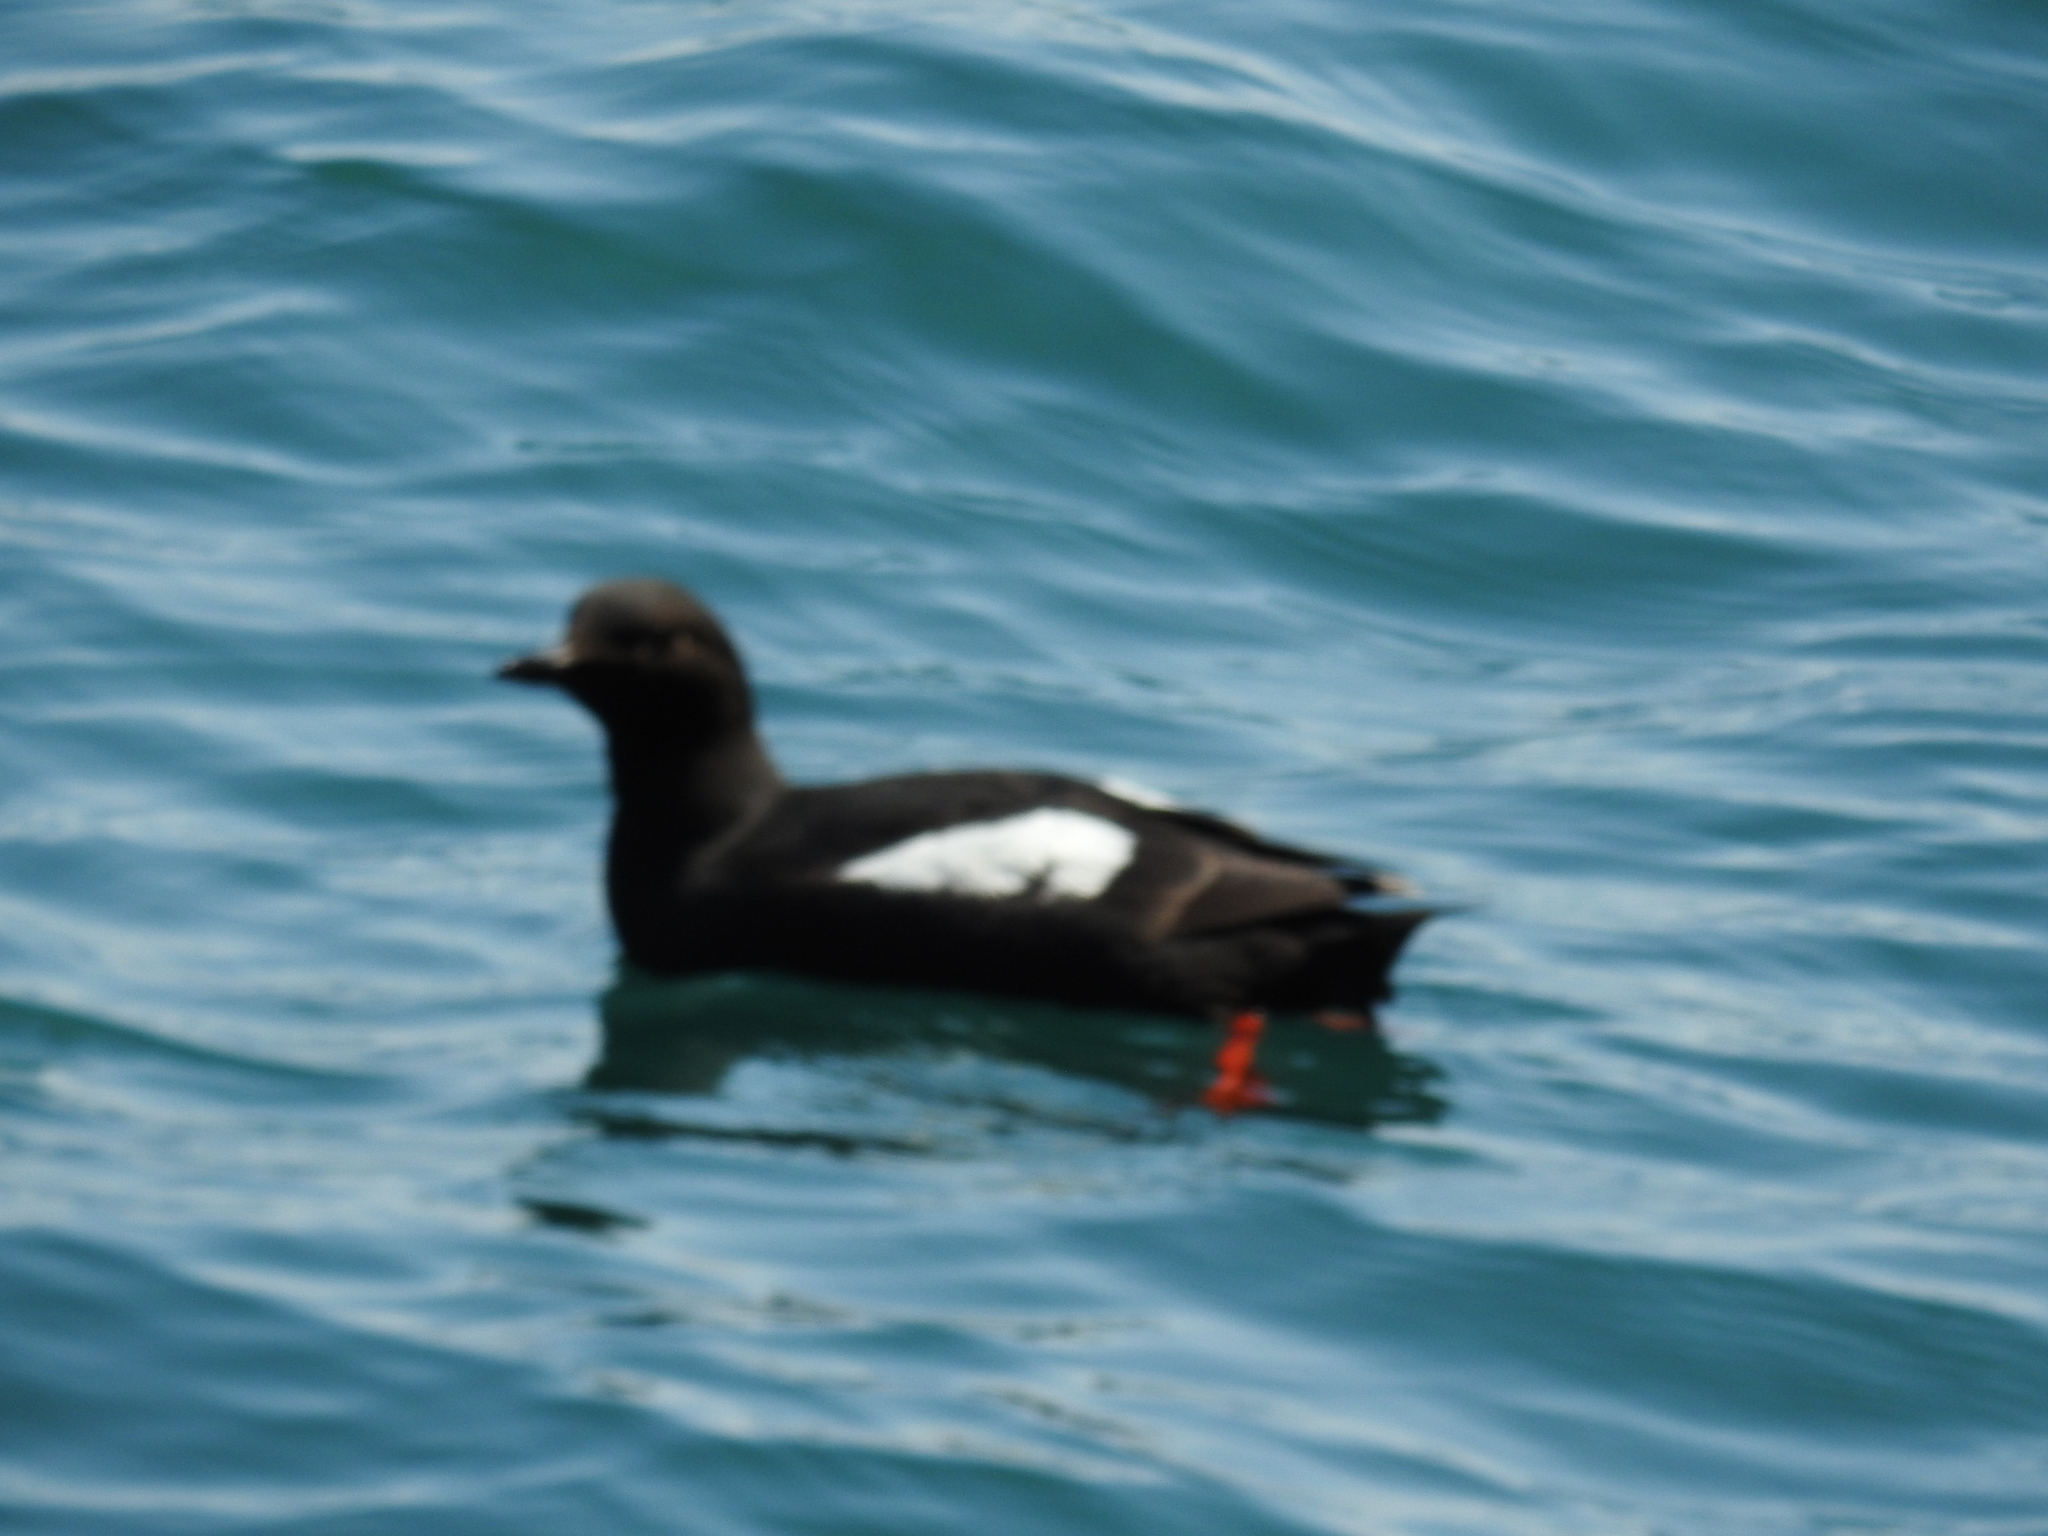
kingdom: Animalia
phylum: Chordata
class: Aves
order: Charadriiformes
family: Alcidae
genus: Cepphus
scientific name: Cepphus columba
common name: Pigeon guillemot
